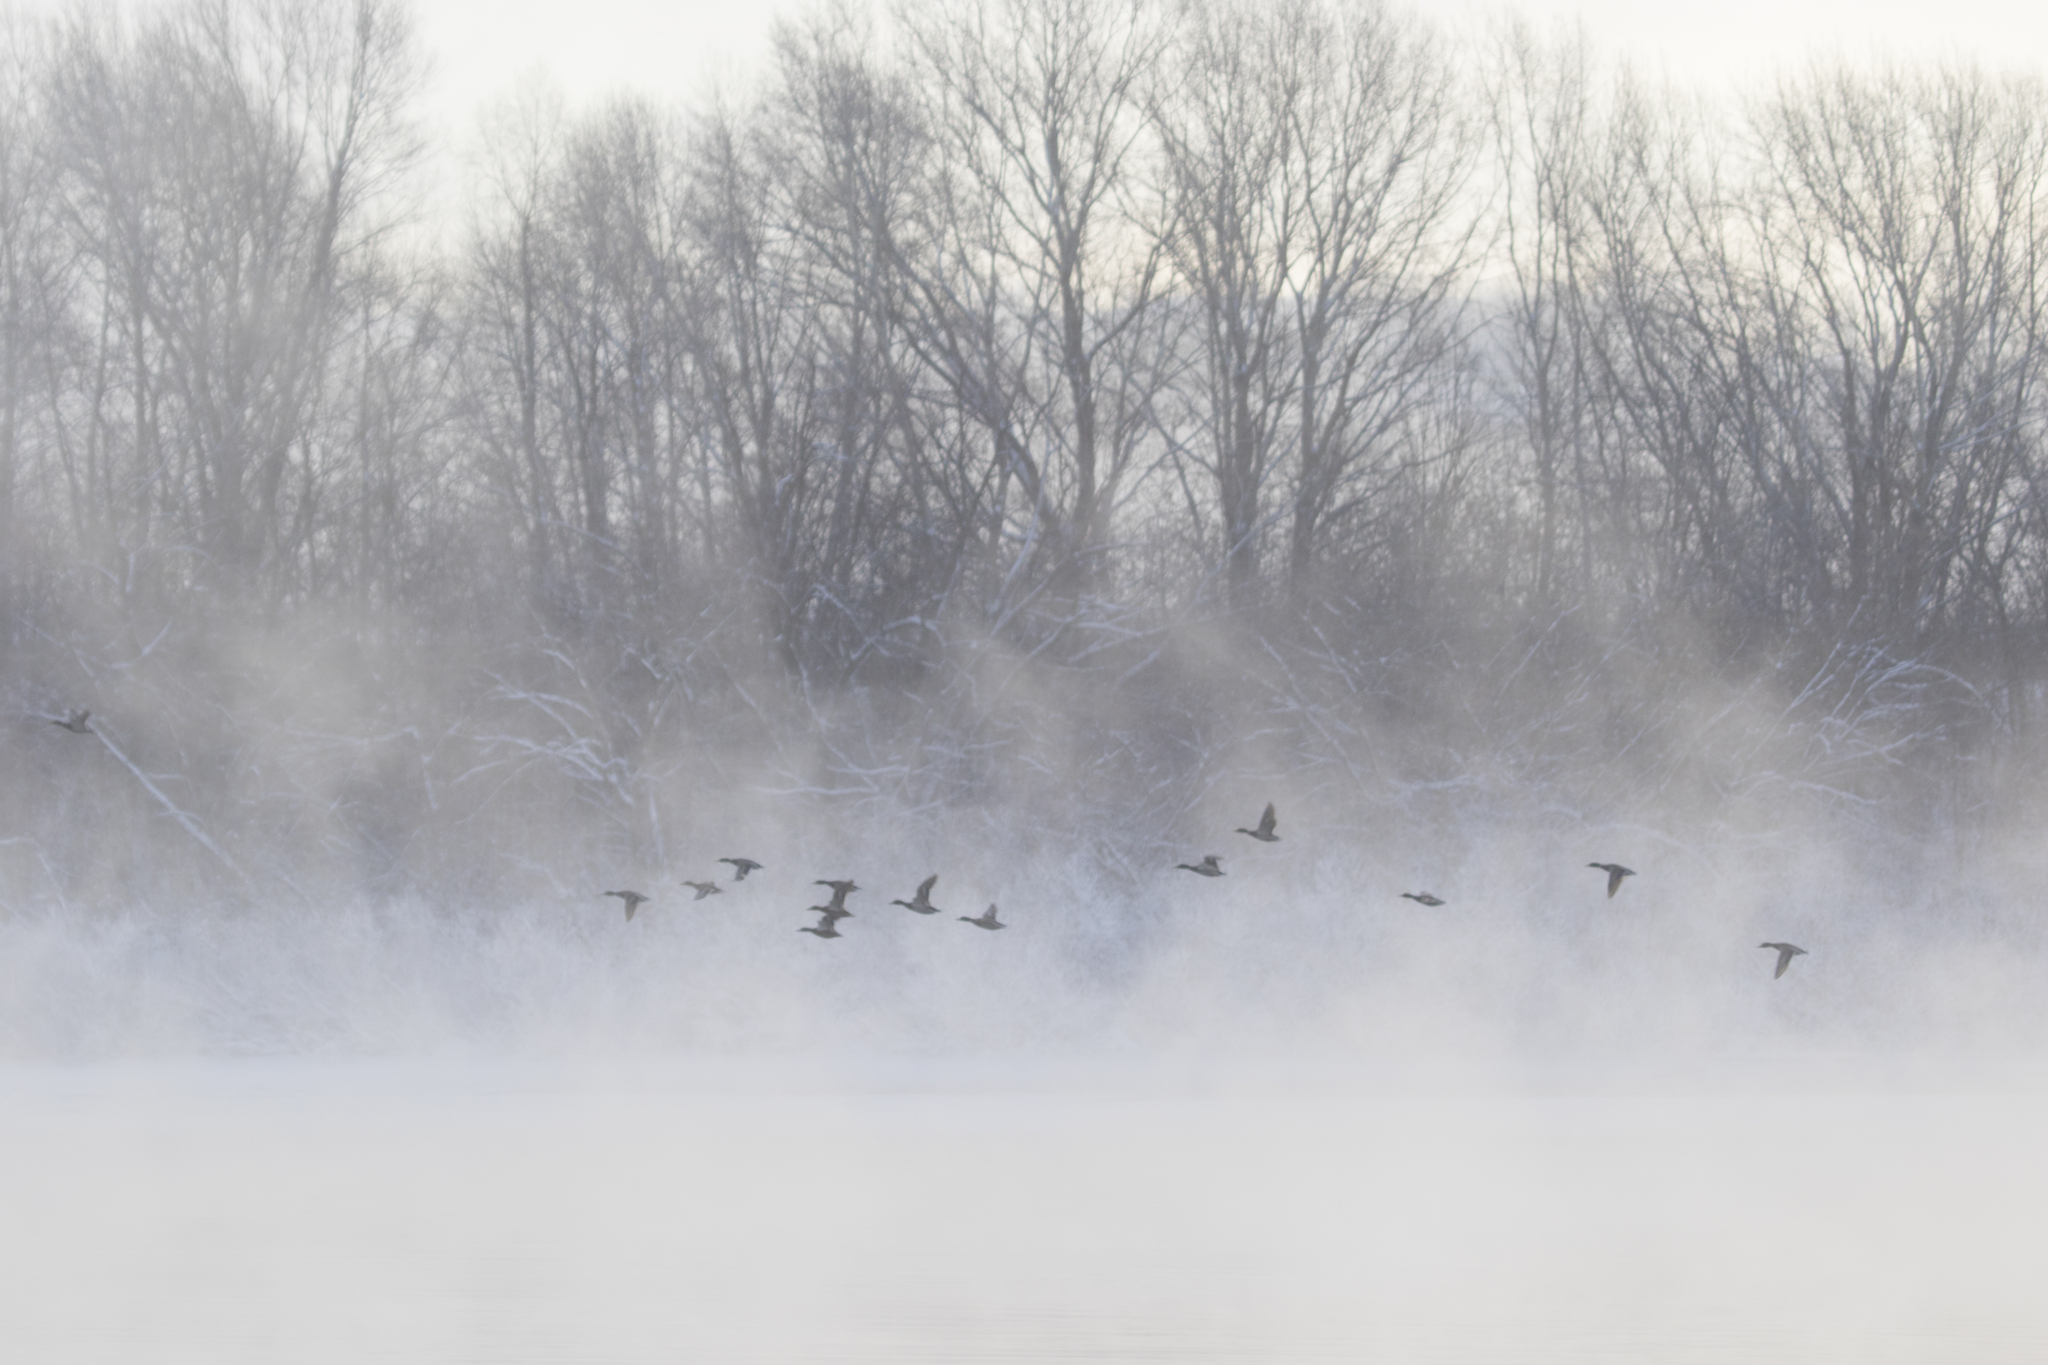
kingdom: Animalia
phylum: Chordata
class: Aves
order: Anseriformes
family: Anatidae
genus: Anas
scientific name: Anas platyrhynchos
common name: Mallard
